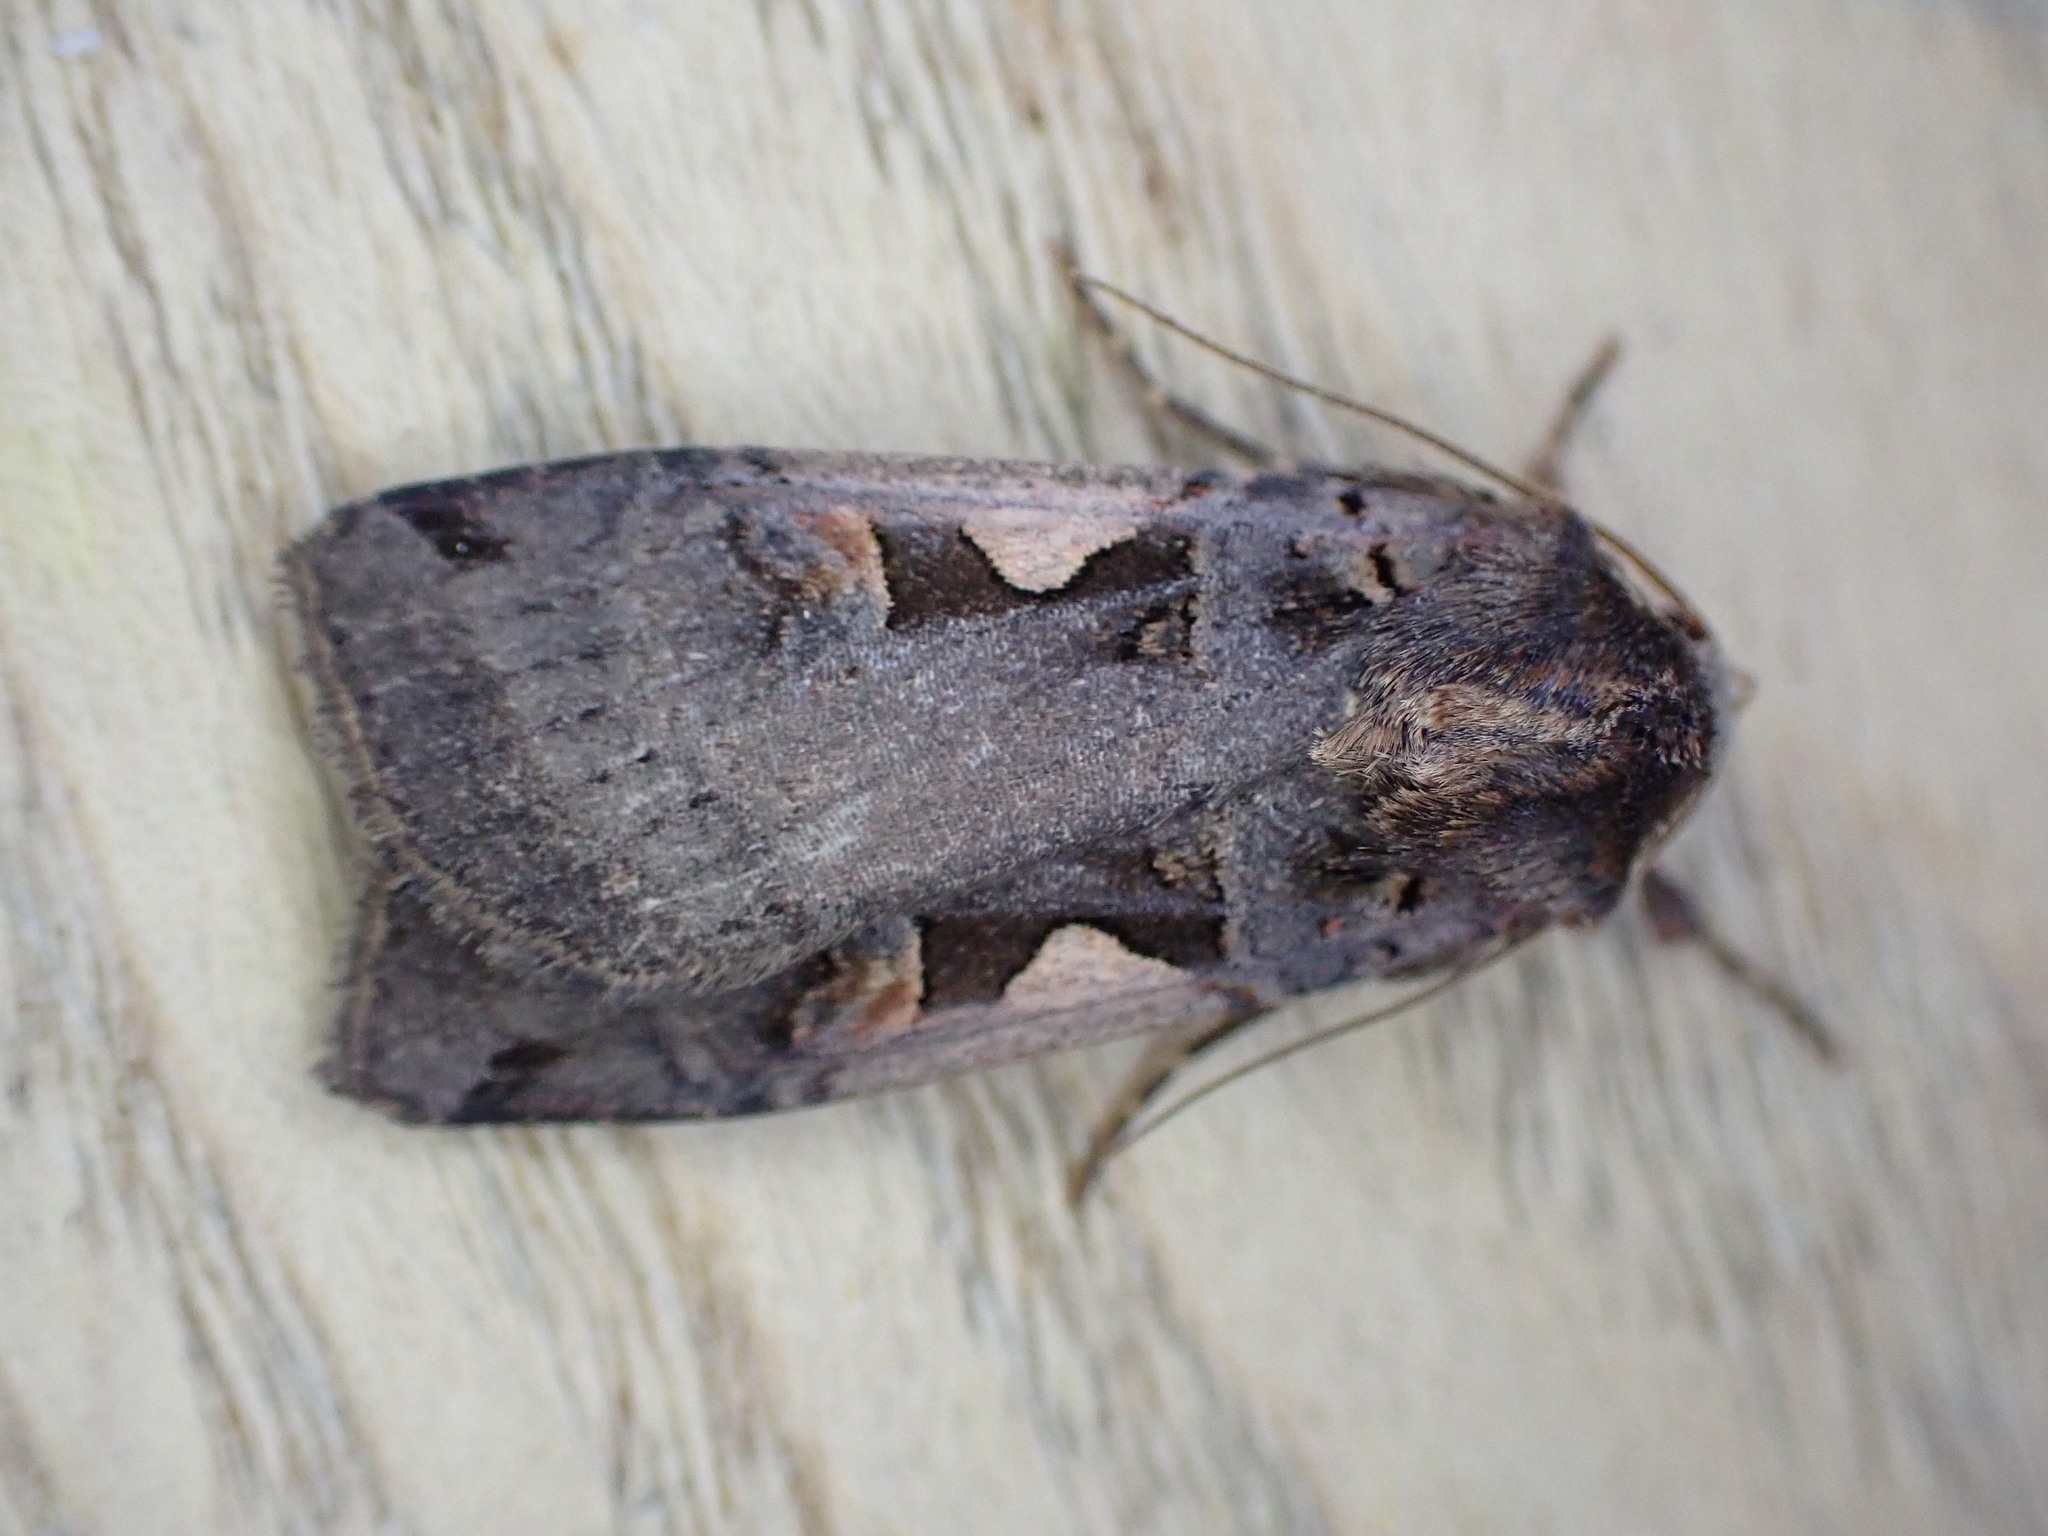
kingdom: Animalia
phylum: Arthropoda
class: Insecta
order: Lepidoptera
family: Noctuidae
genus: Xestia
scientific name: Xestia c-nigrum
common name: Setaceous hebrew character
